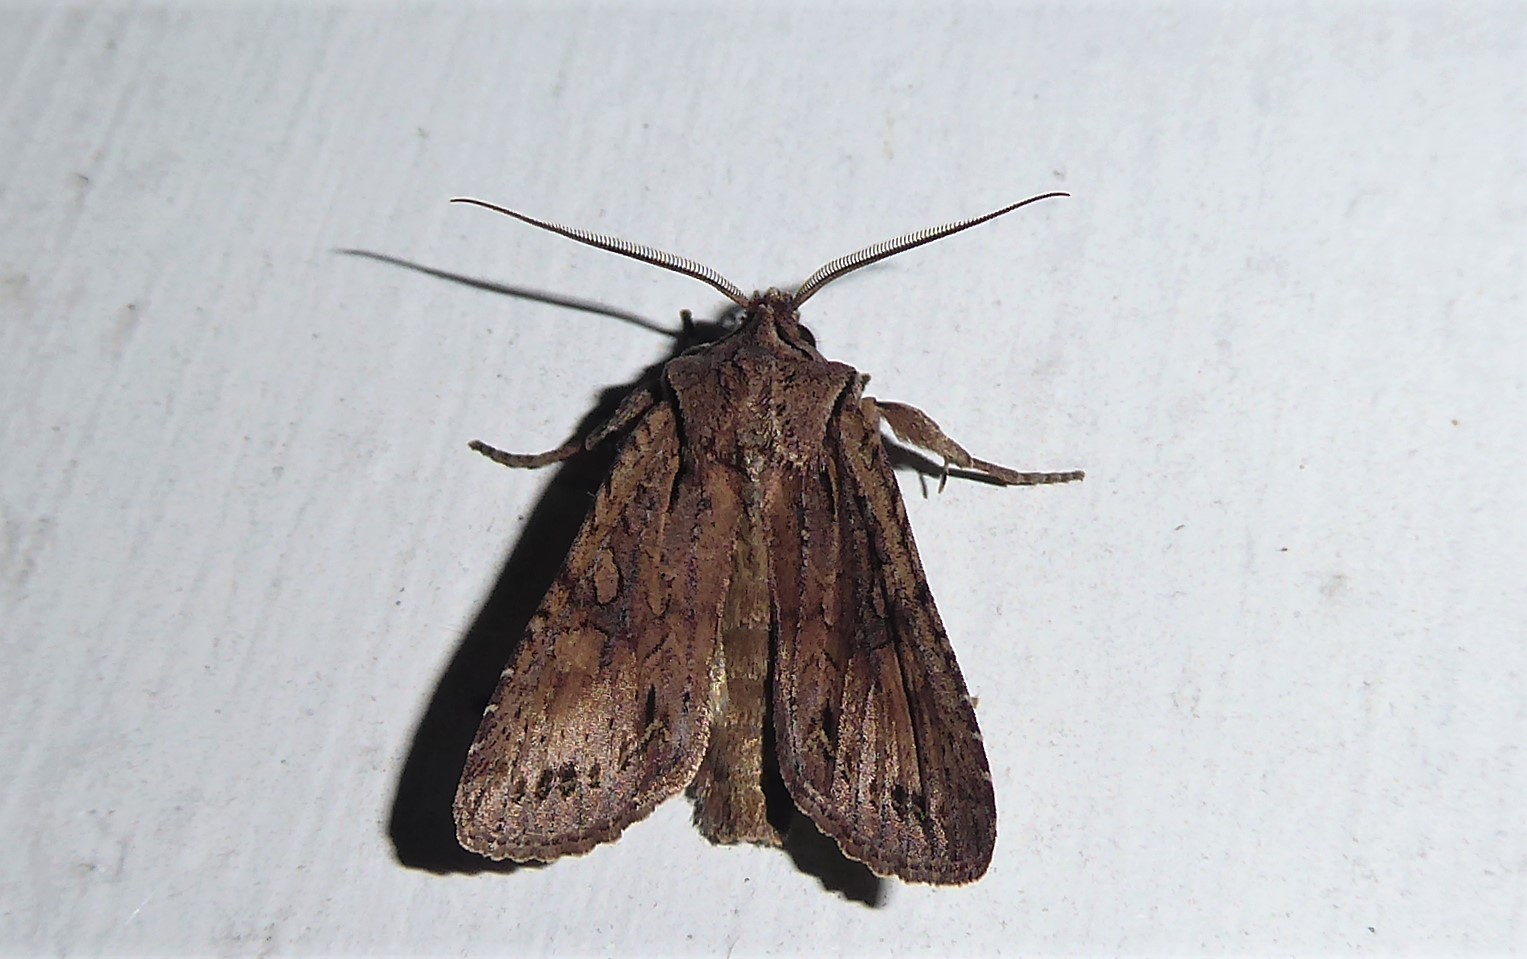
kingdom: Animalia
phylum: Arthropoda
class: Insecta
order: Lepidoptera
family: Noctuidae
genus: Ichneutica
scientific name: Ichneutica
